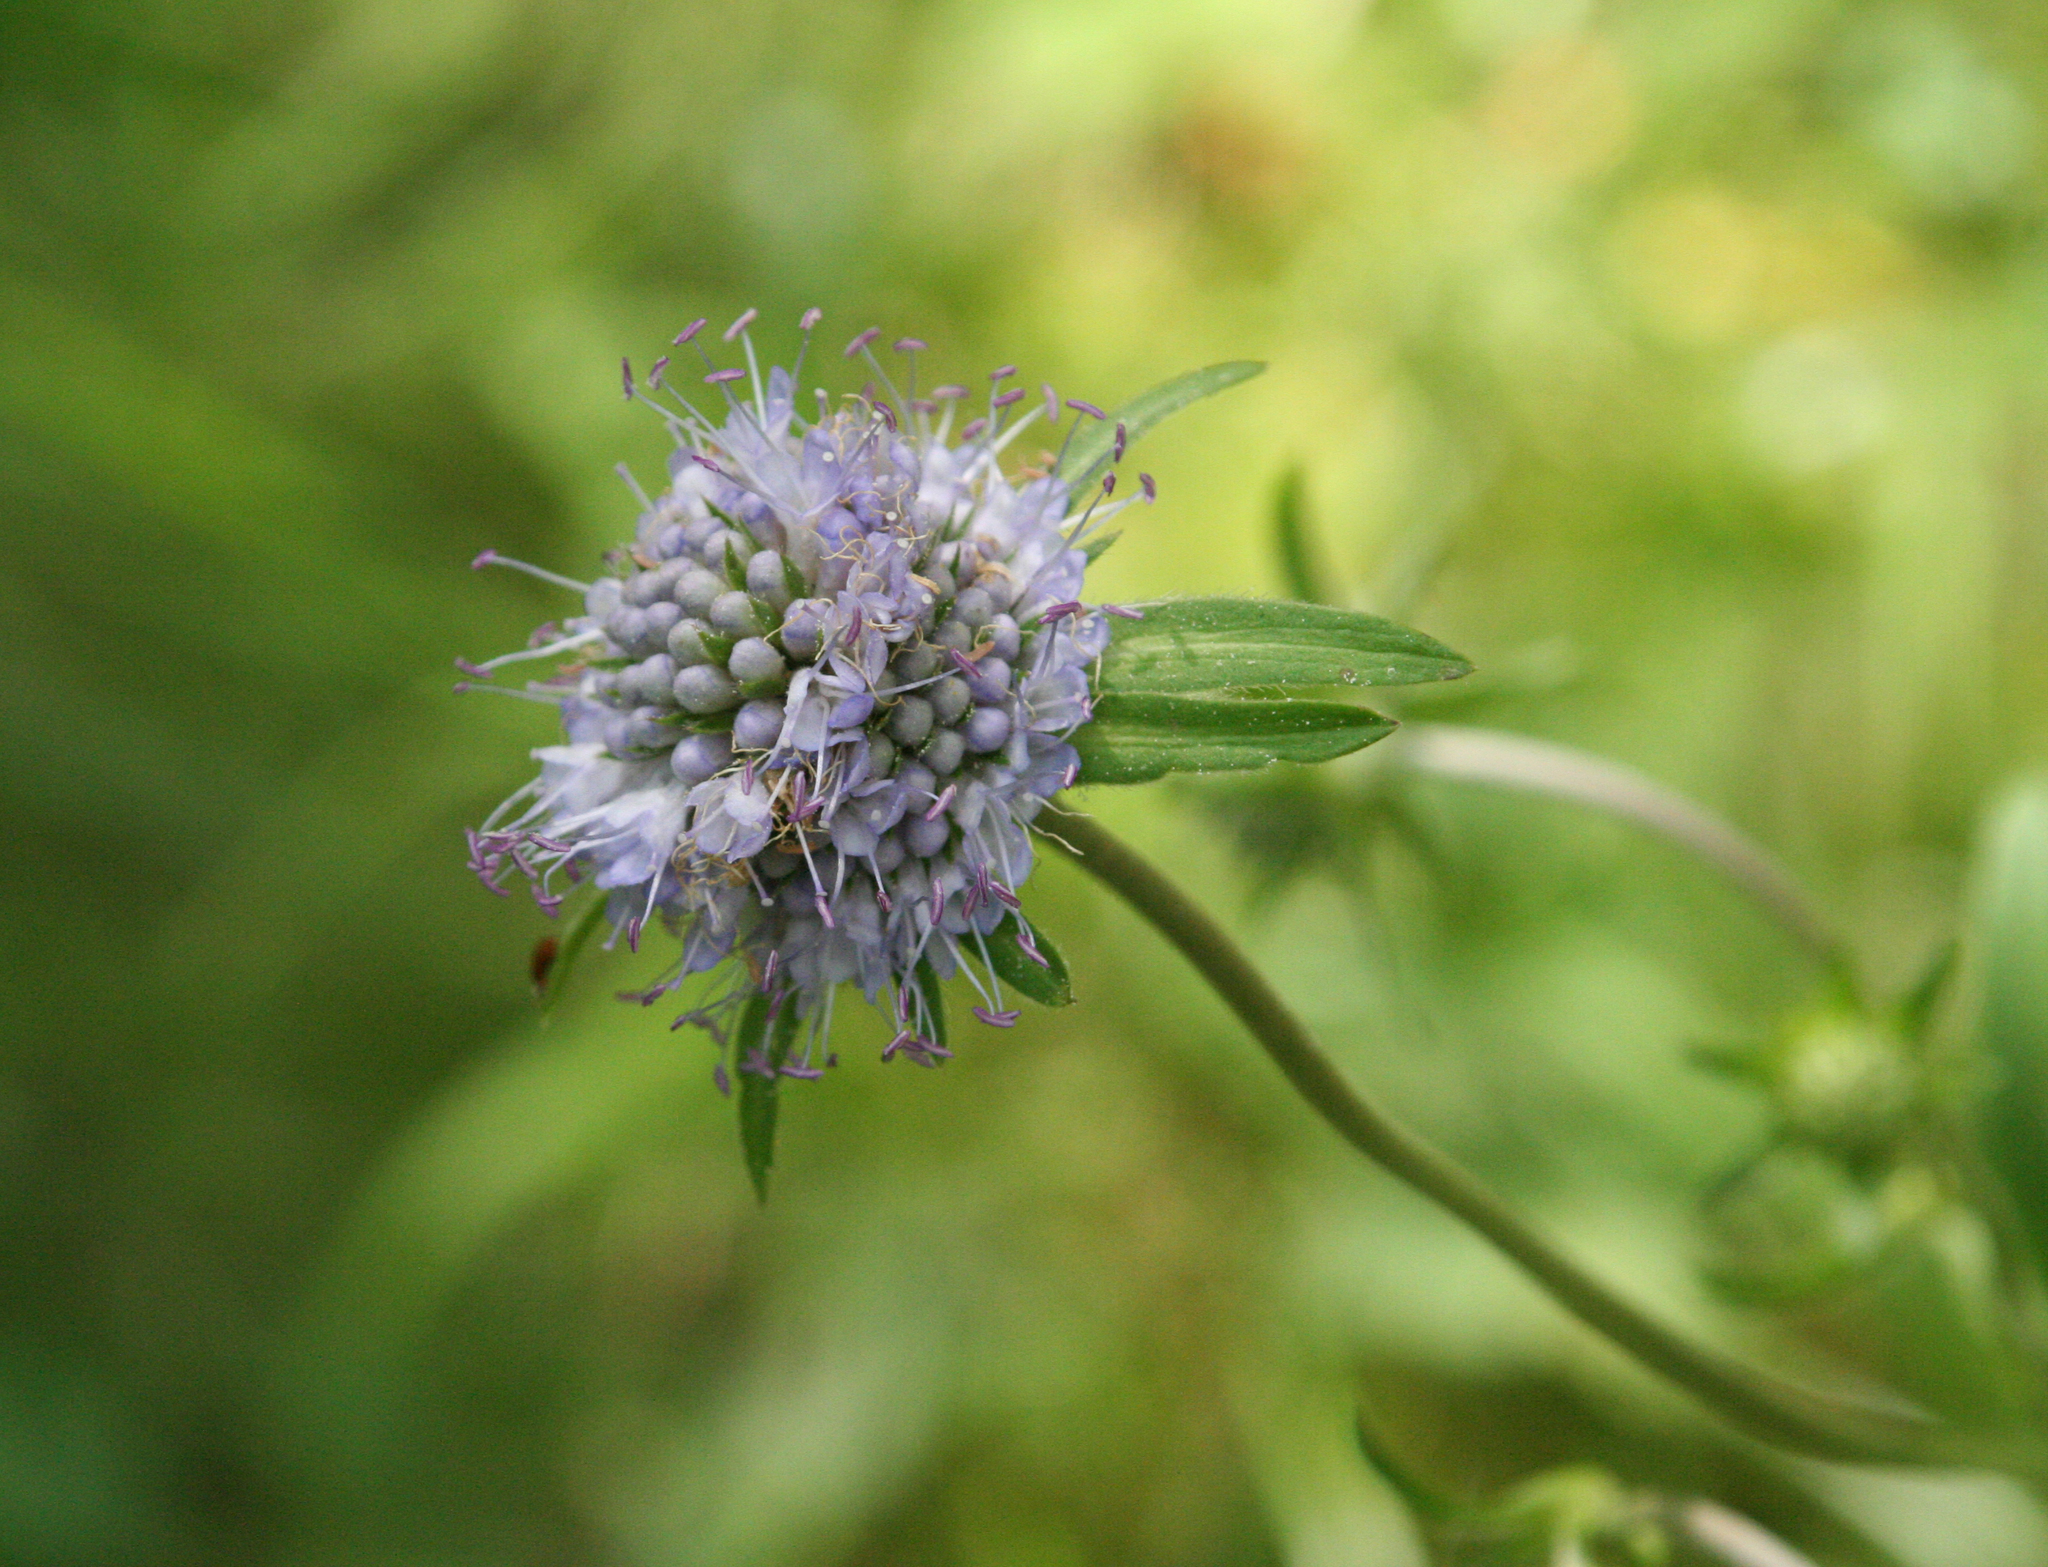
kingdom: Plantae
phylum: Tracheophyta
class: Magnoliopsida
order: Dipsacales
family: Caprifoliaceae
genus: Succisa
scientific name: Succisa pratensis
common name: Devil's-bit
